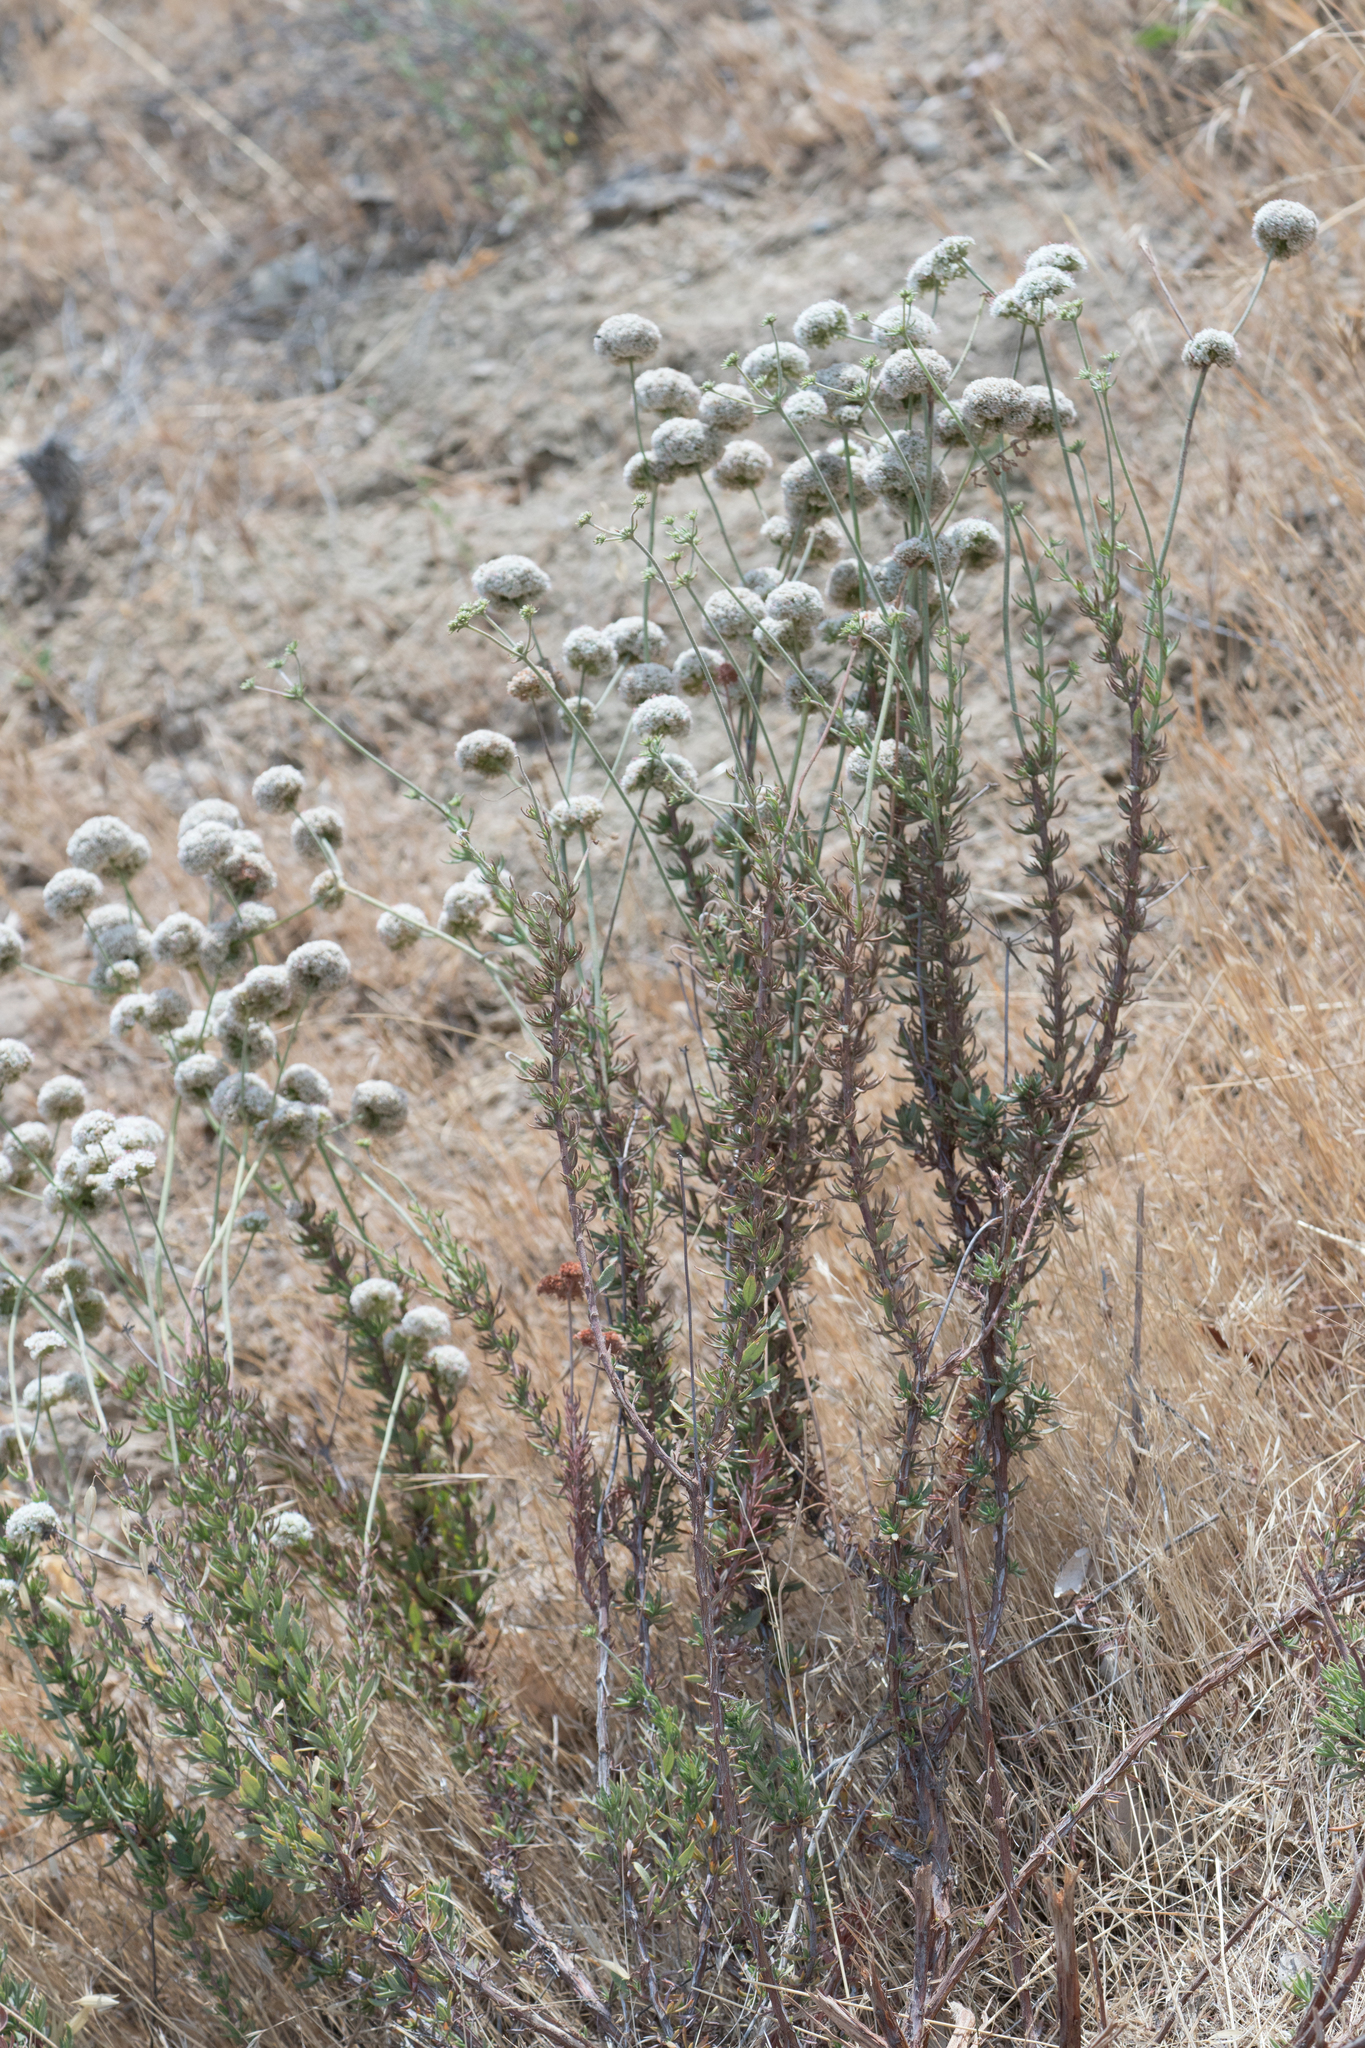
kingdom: Plantae
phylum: Tracheophyta
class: Magnoliopsida
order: Caryophyllales
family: Polygonaceae
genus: Eriogonum
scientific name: Eriogonum fasciculatum
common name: California wild buckwheat
